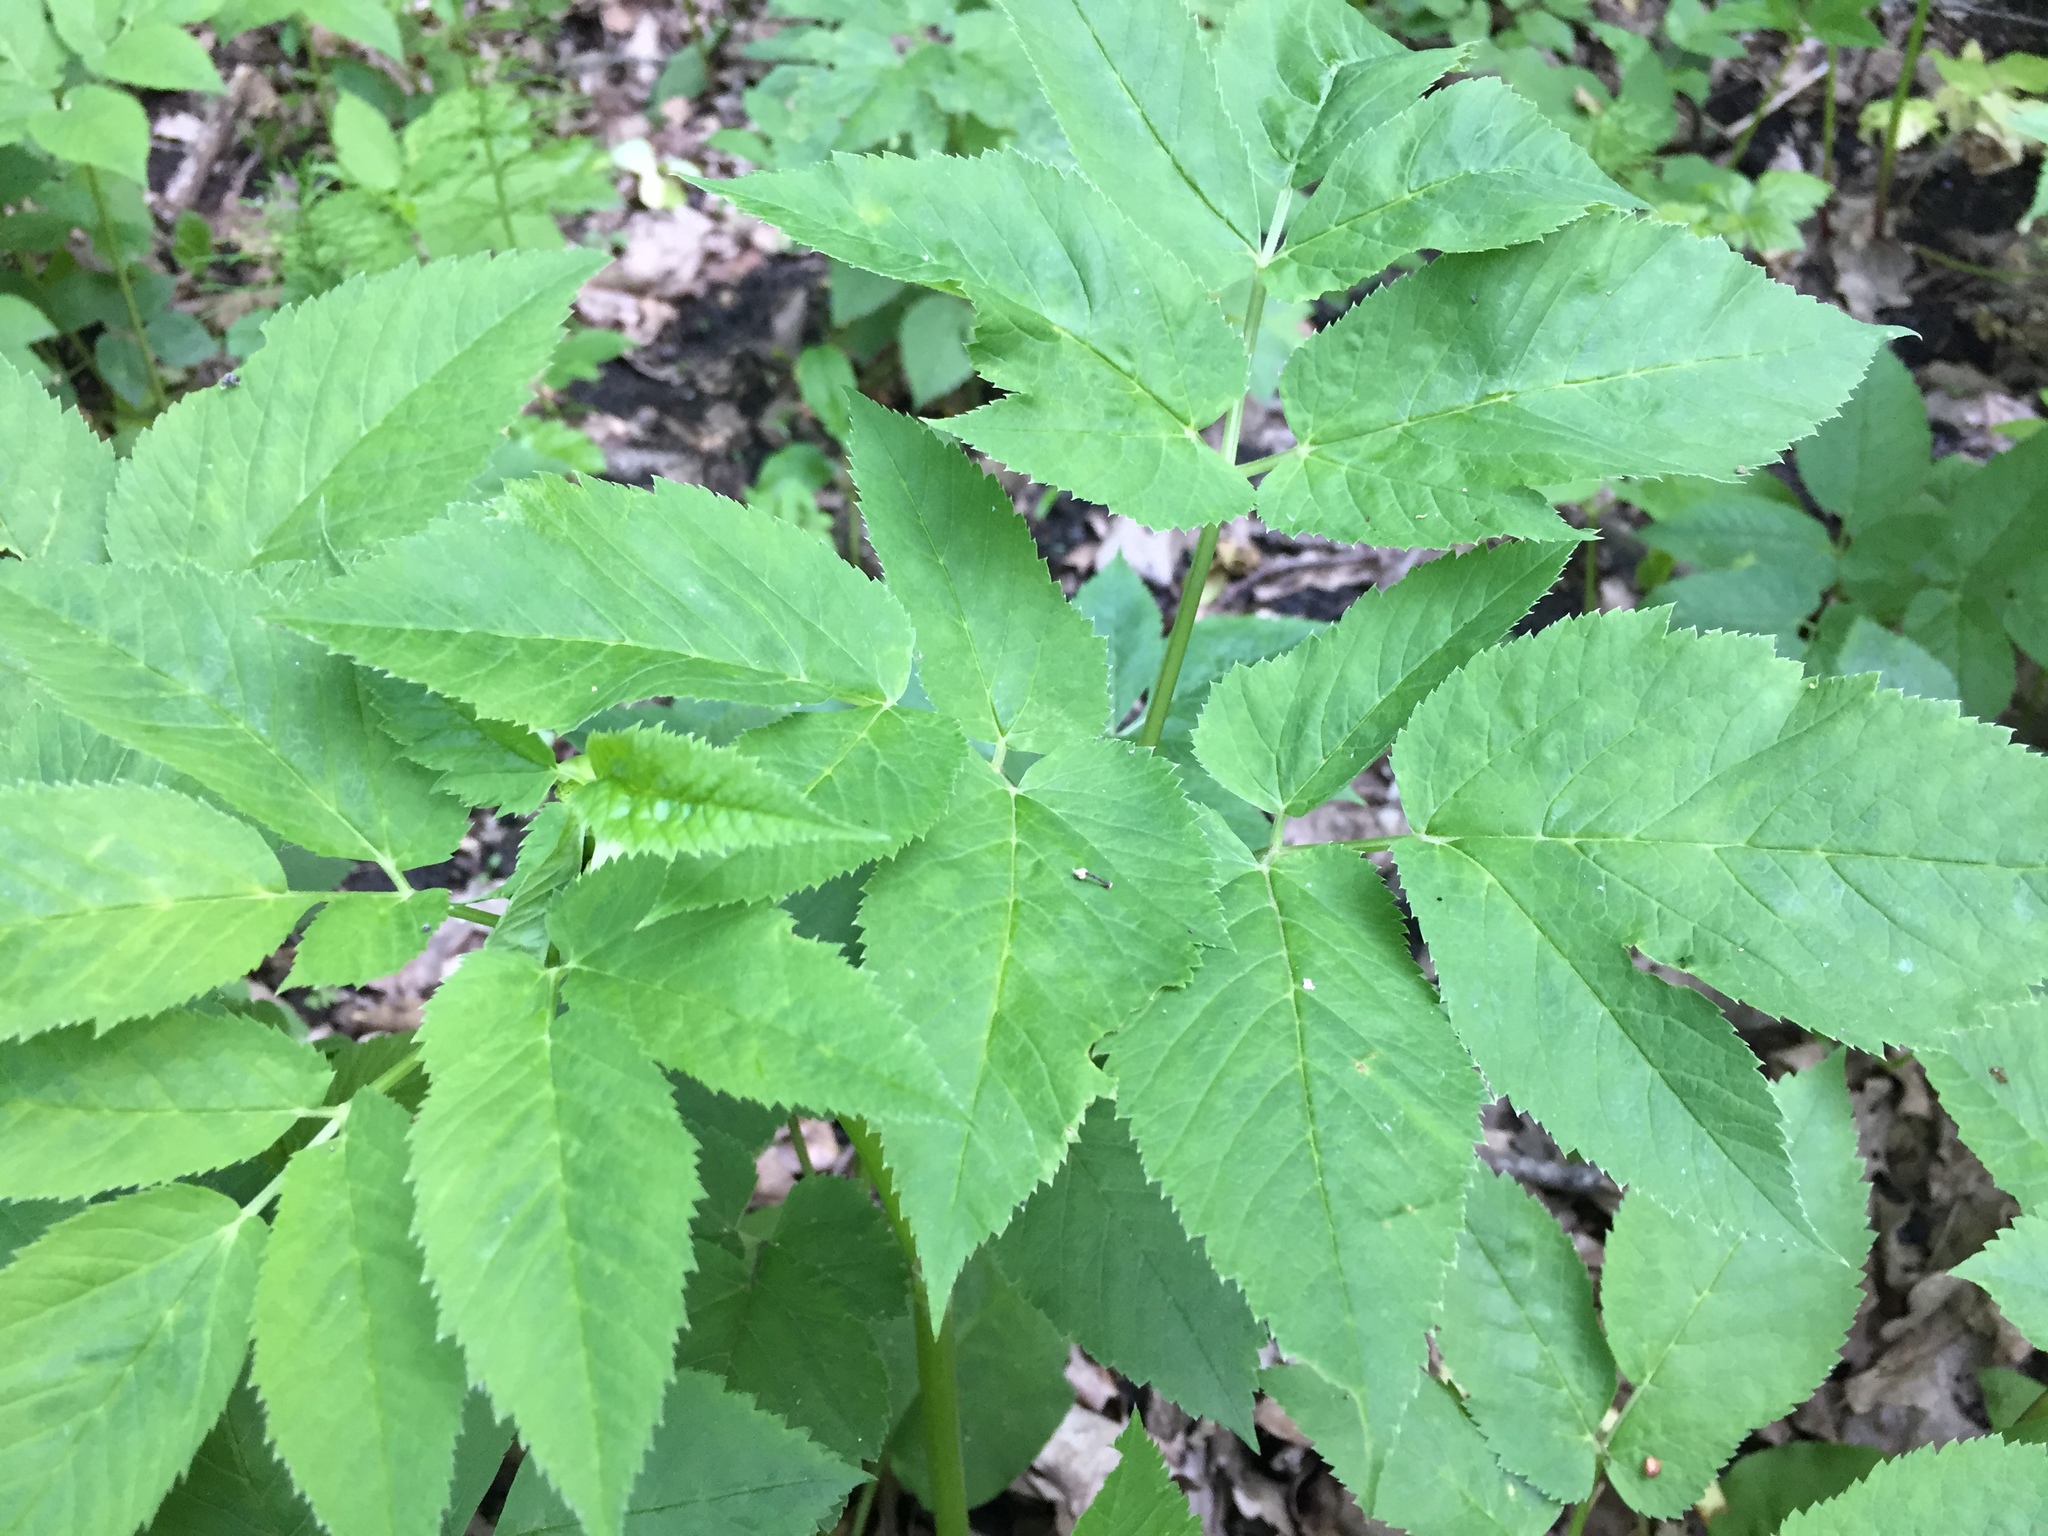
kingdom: Plantae
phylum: Tracheophyta
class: Magnoliopsida
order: Apiales
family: Apiaceae
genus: Aegopodium
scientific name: Aegopodium podagraria
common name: Ground-elder
